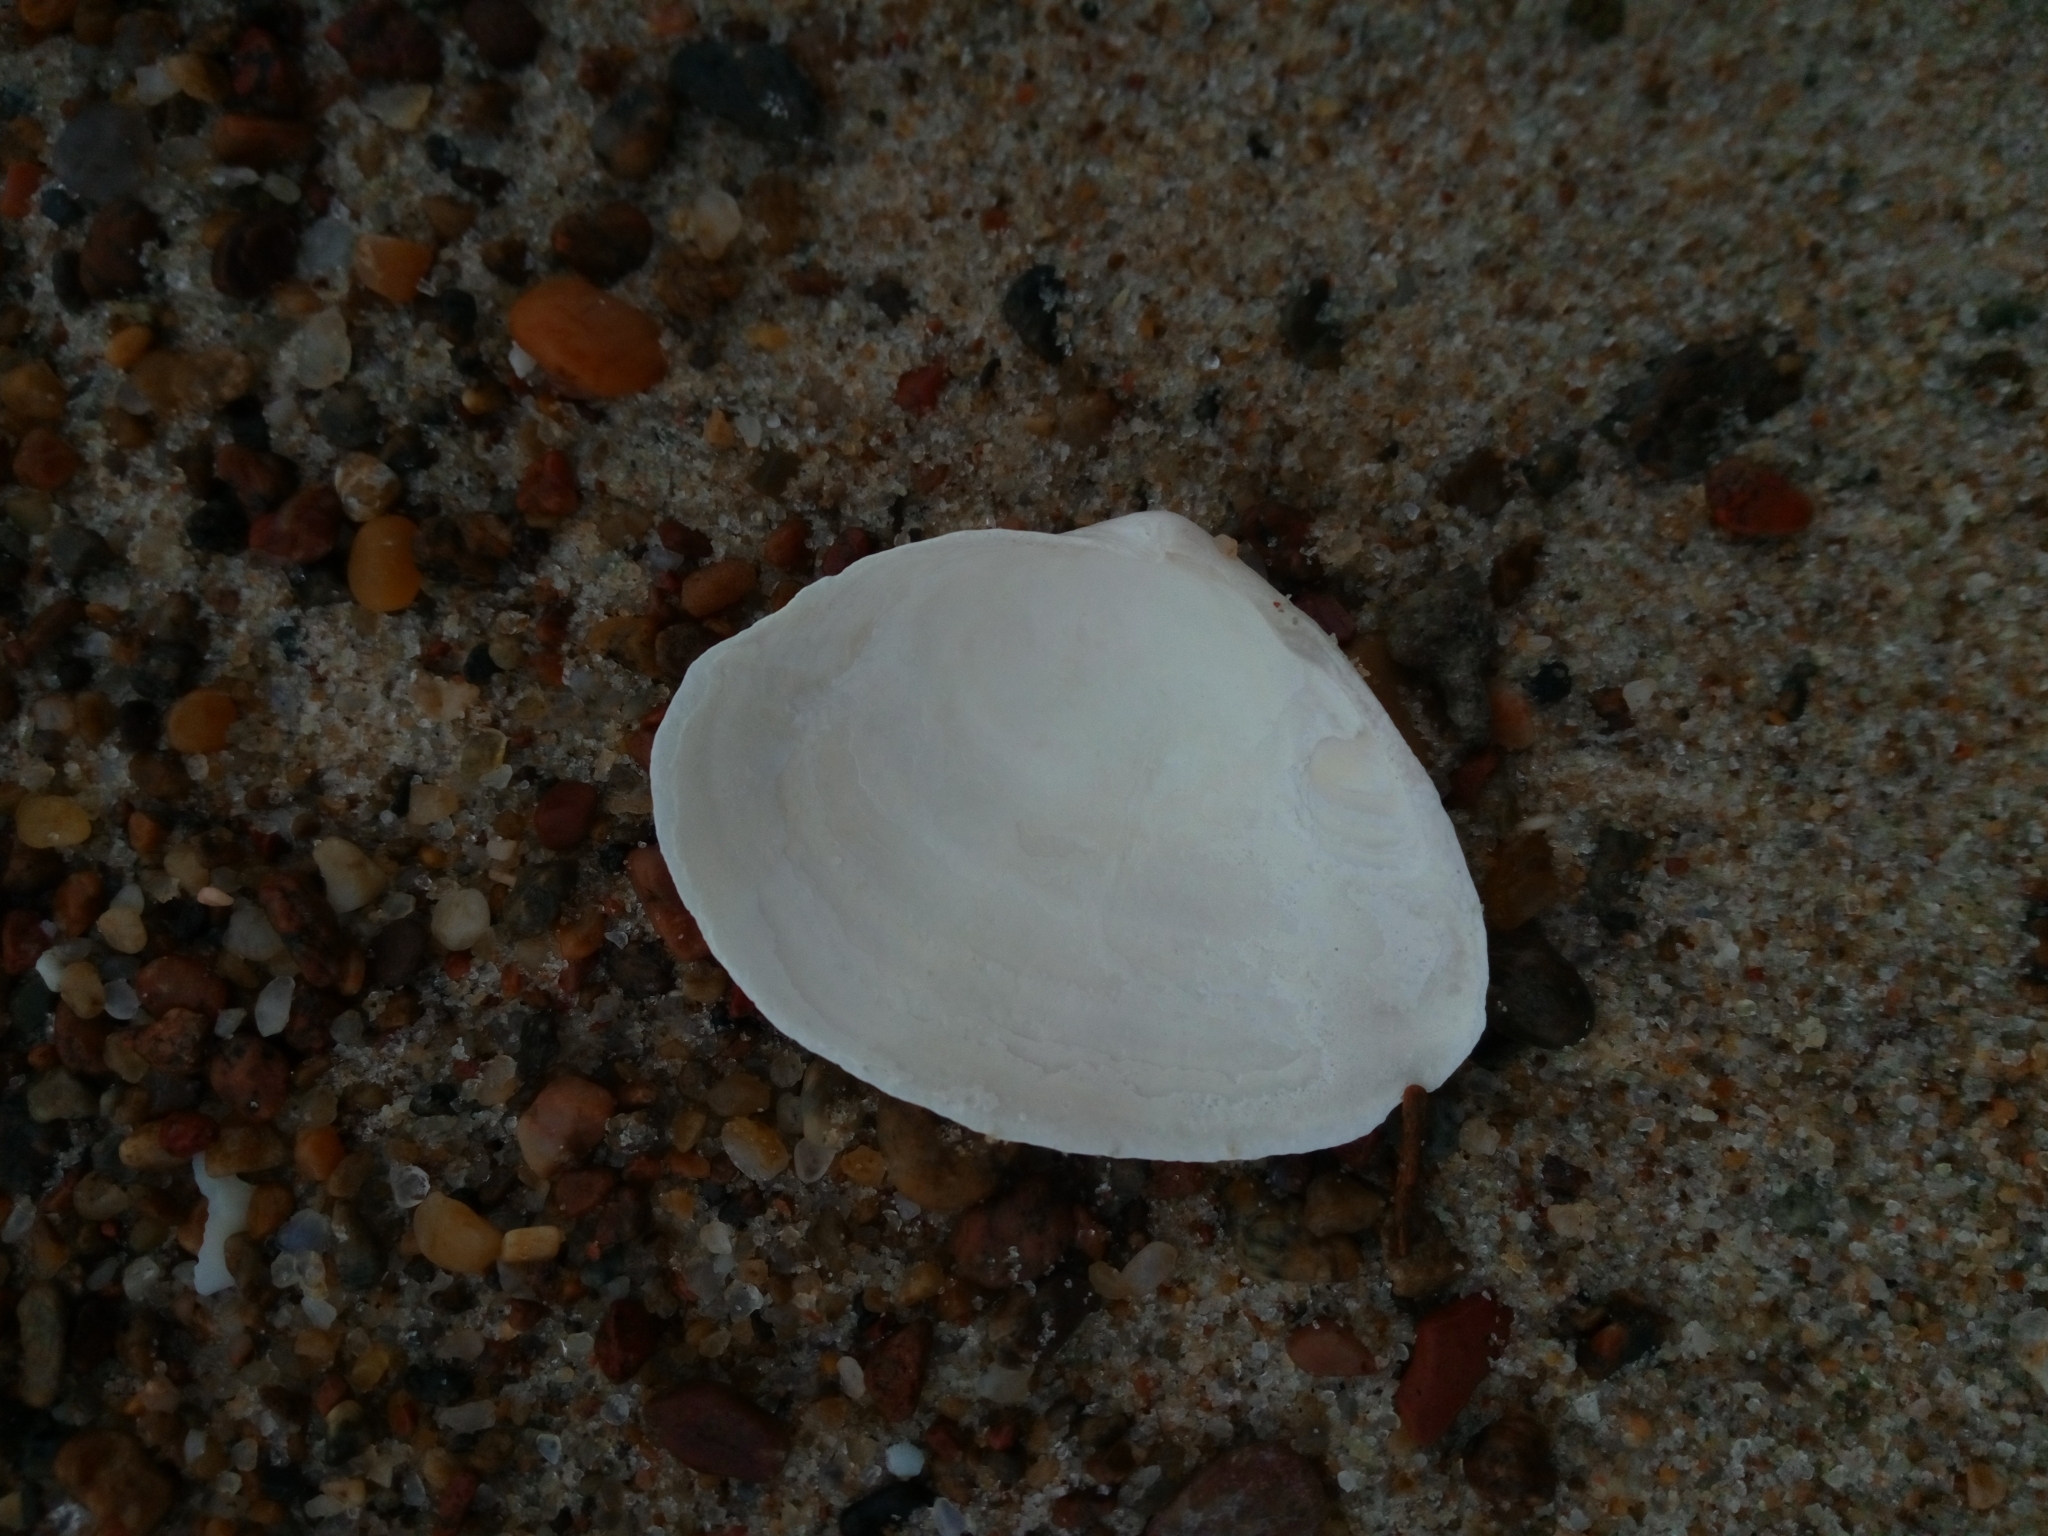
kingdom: Animalia
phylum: Mollusca
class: Bivalvia
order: Myida
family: Myidae
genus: Mya
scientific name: Mya arenaria
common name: Soft-shelled clam
